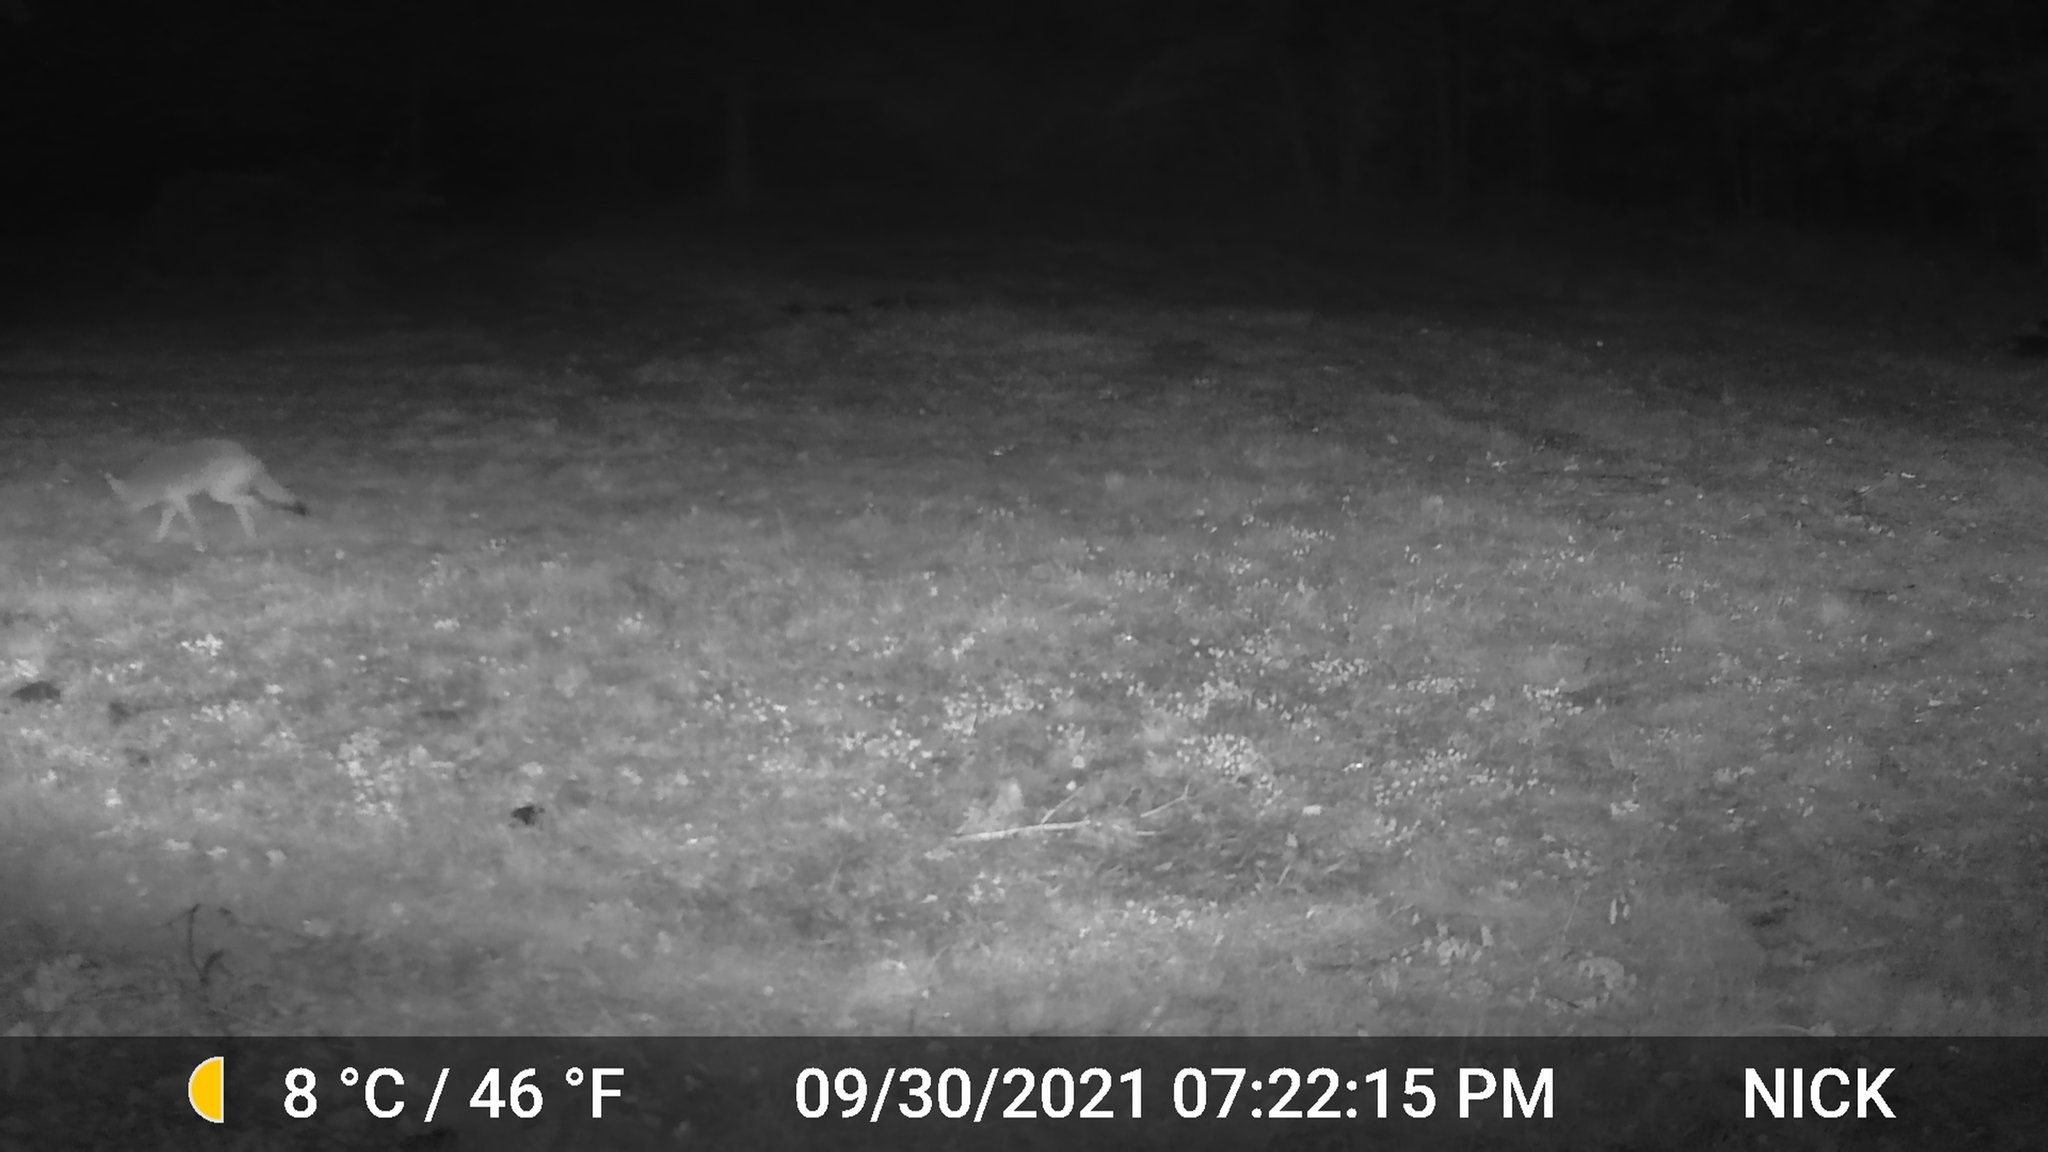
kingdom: Animalia
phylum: Chordata
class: Mammalia
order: Carnivora
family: Canidae
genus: Canis
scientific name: Canis latrans
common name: Coyote
